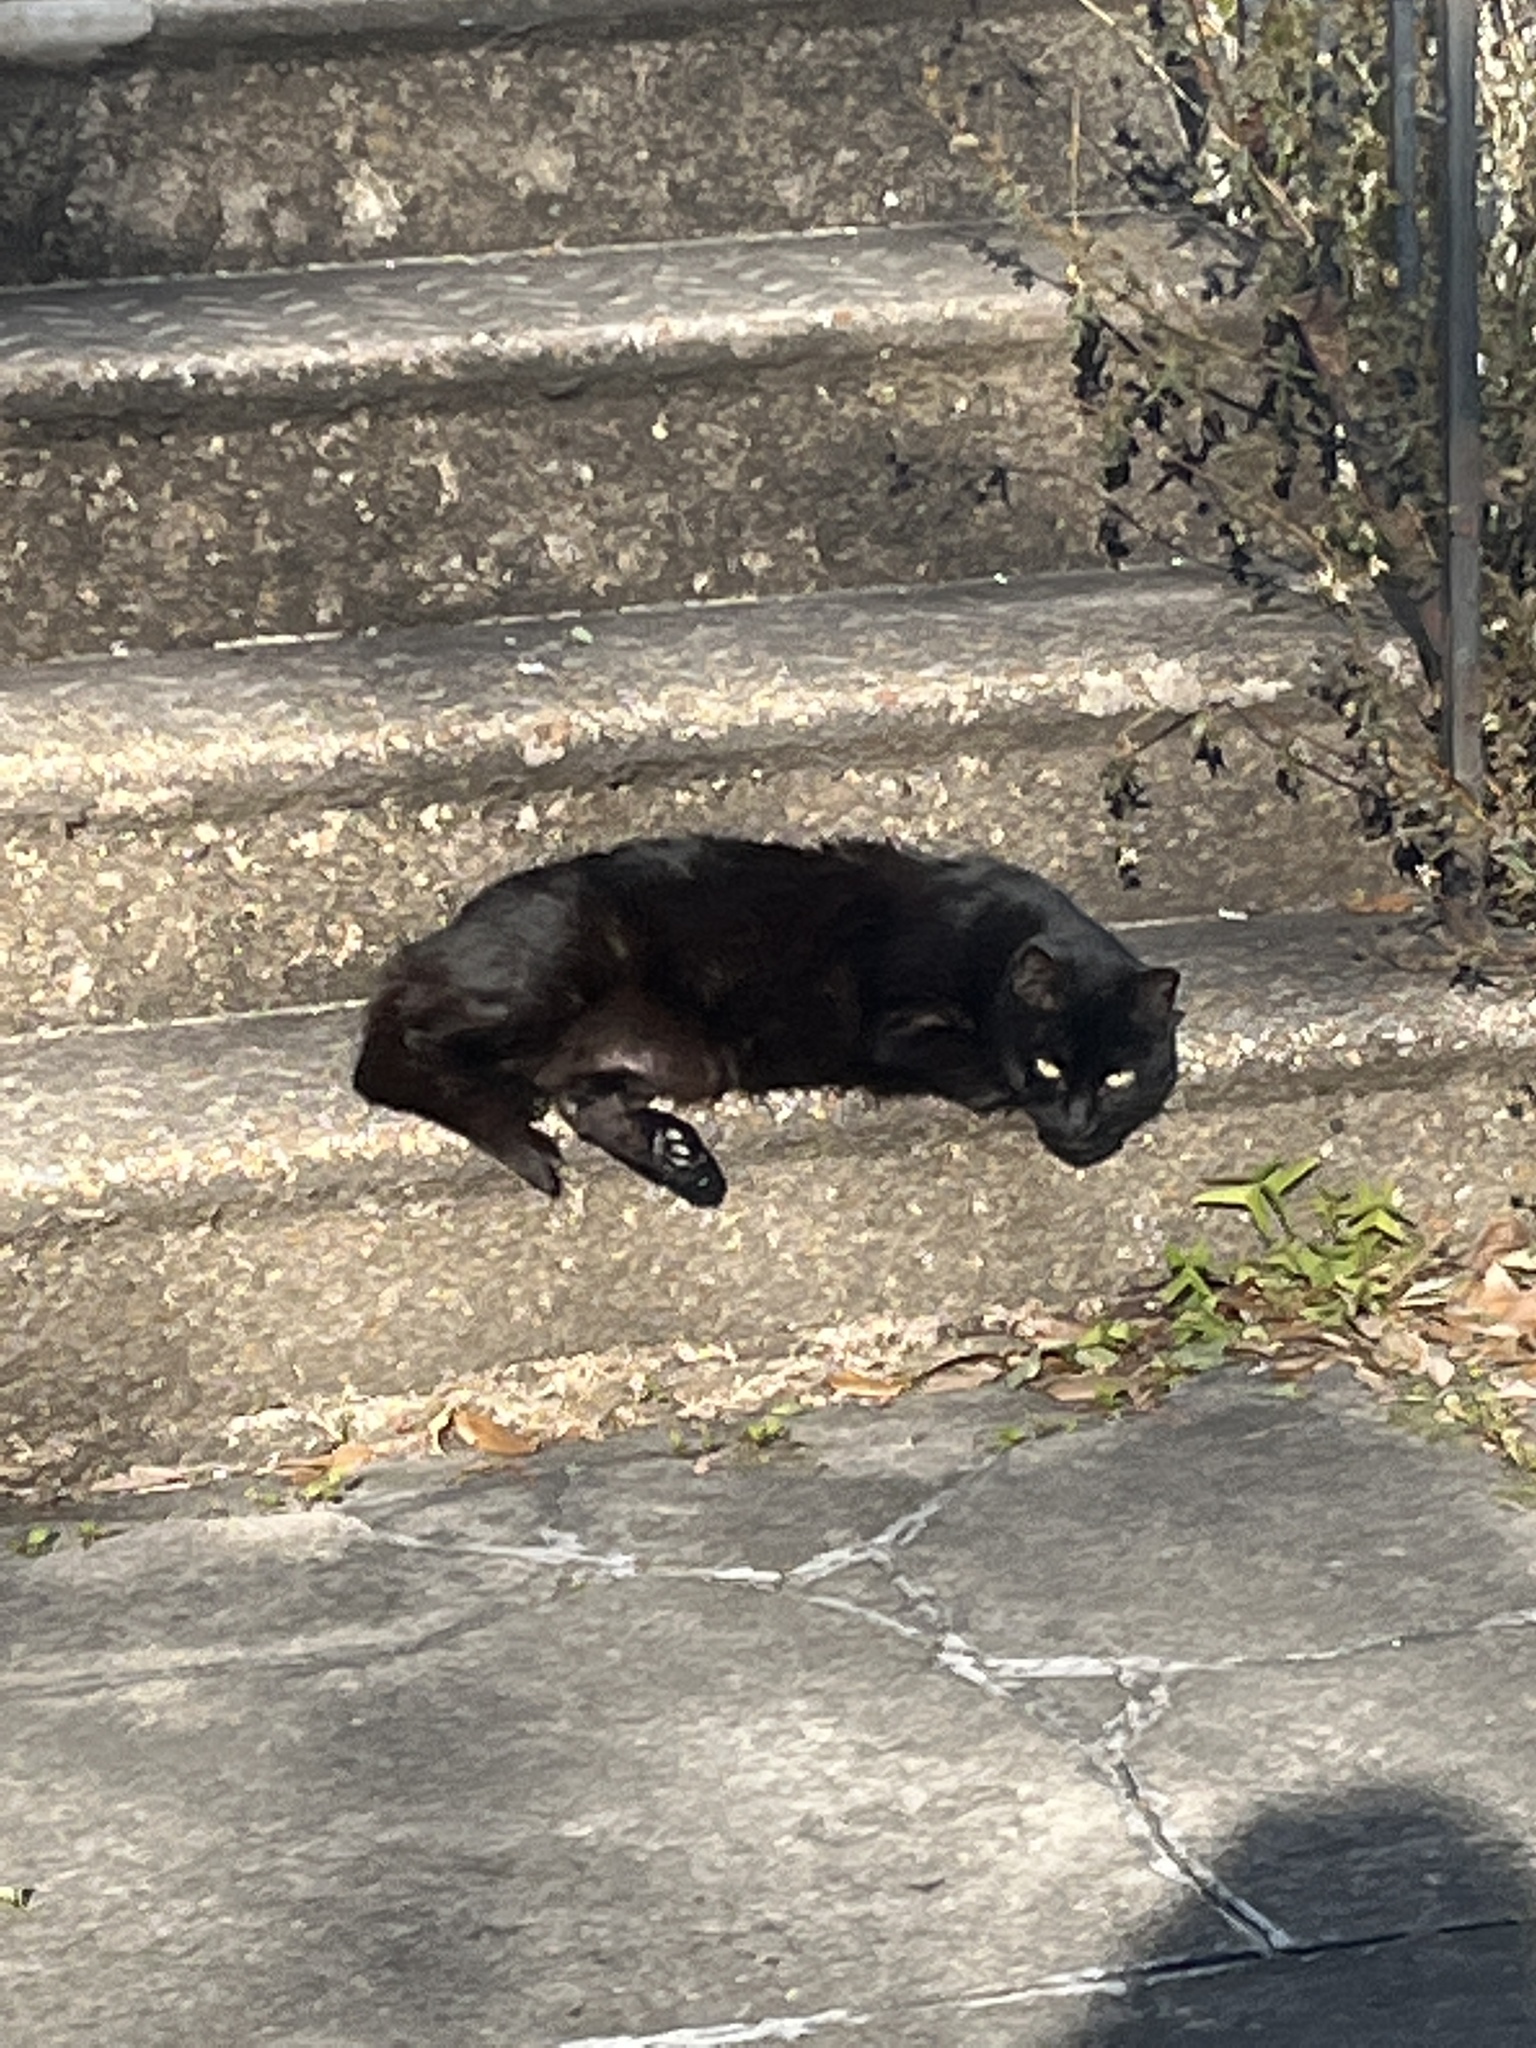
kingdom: Animalia
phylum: Chordata
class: Mammalia
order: Carnivora
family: Felidae
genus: Felis
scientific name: Felis catus
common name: Domestic cat
